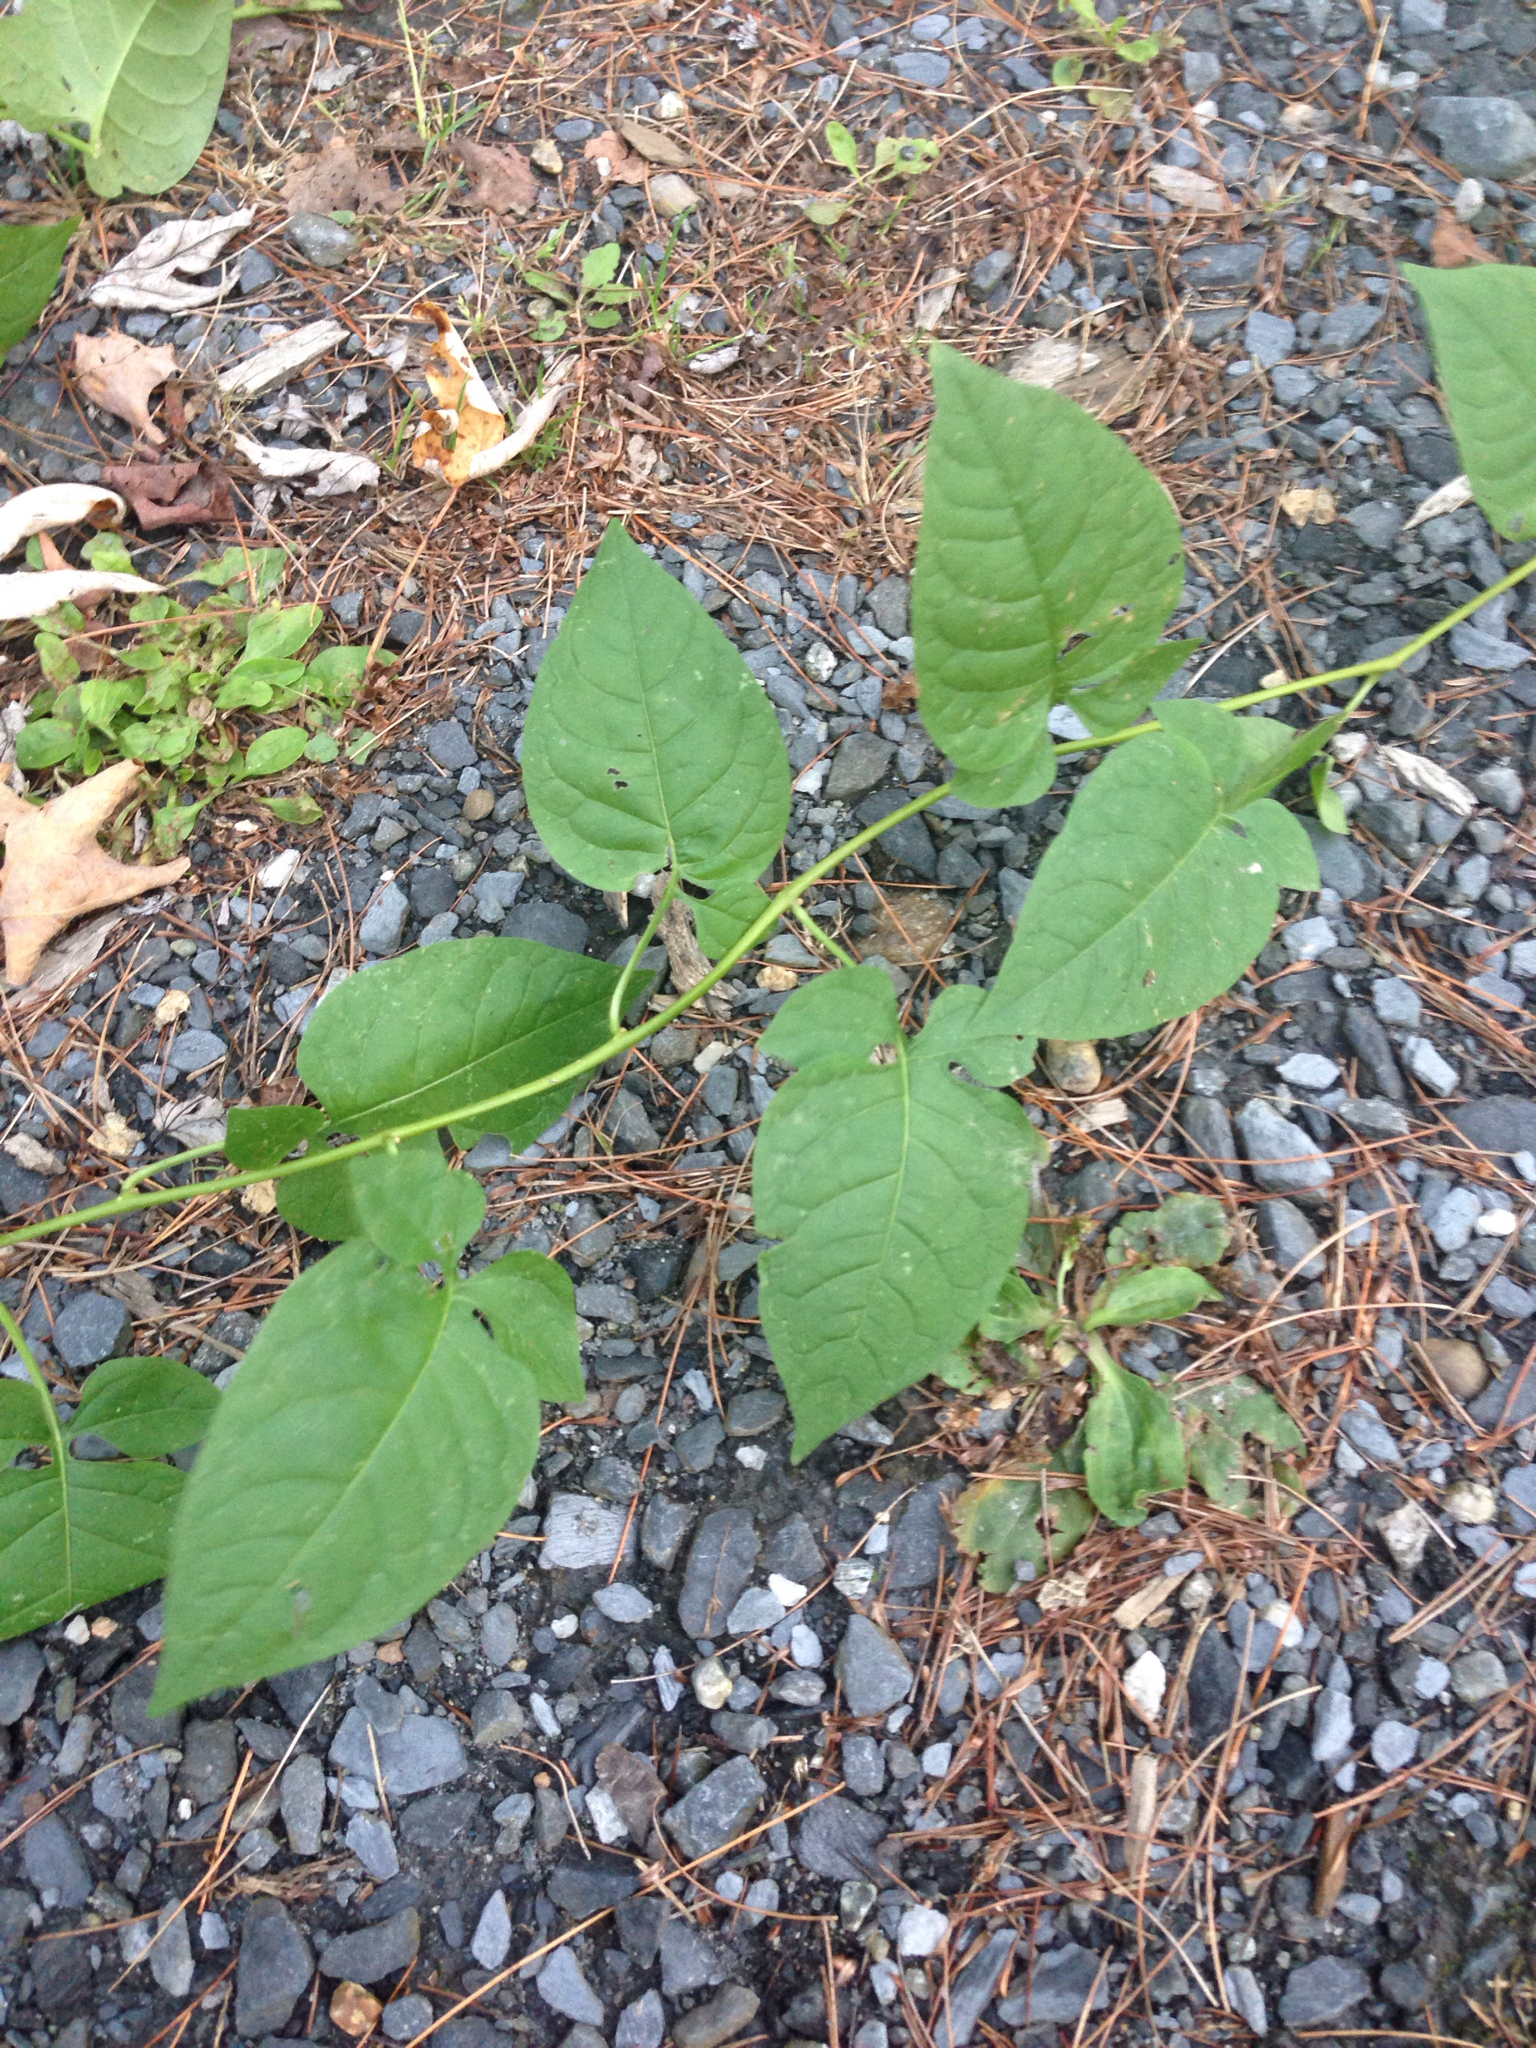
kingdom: Plantae
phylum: Tracheophyta
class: Magnoliopsida
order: Solanales
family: Solanaceae
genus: Solanum
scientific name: Solanum dulcamara
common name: Climbing nightshade
